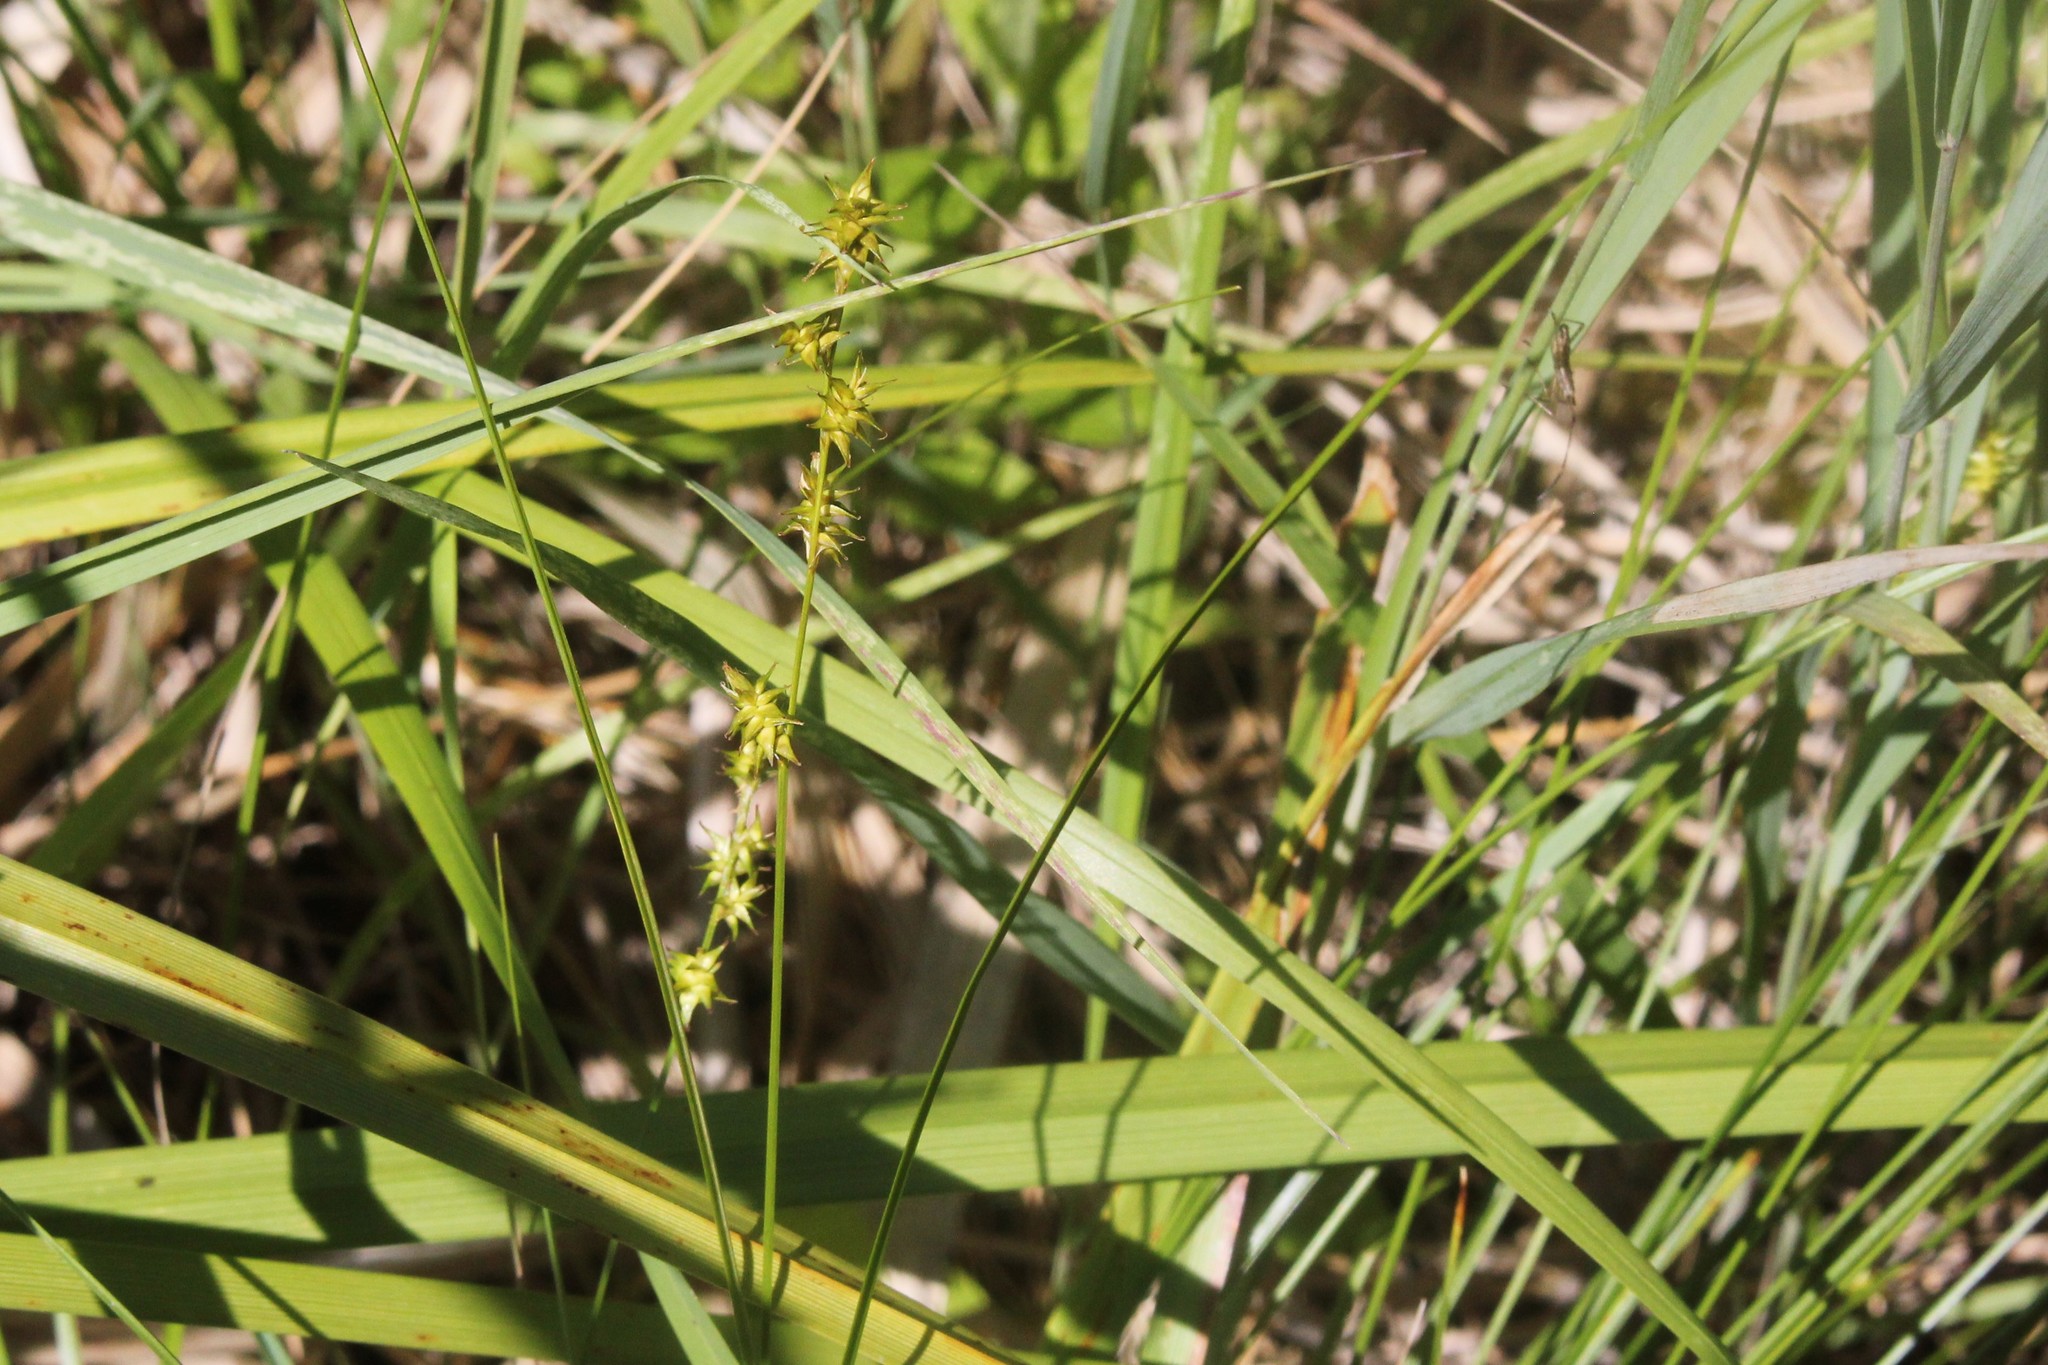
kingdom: Plantae
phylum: Tracheophyta
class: Liliopsida
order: Poales
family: Cyperaceae
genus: Carex
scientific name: Carex echinata
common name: Star sedge
